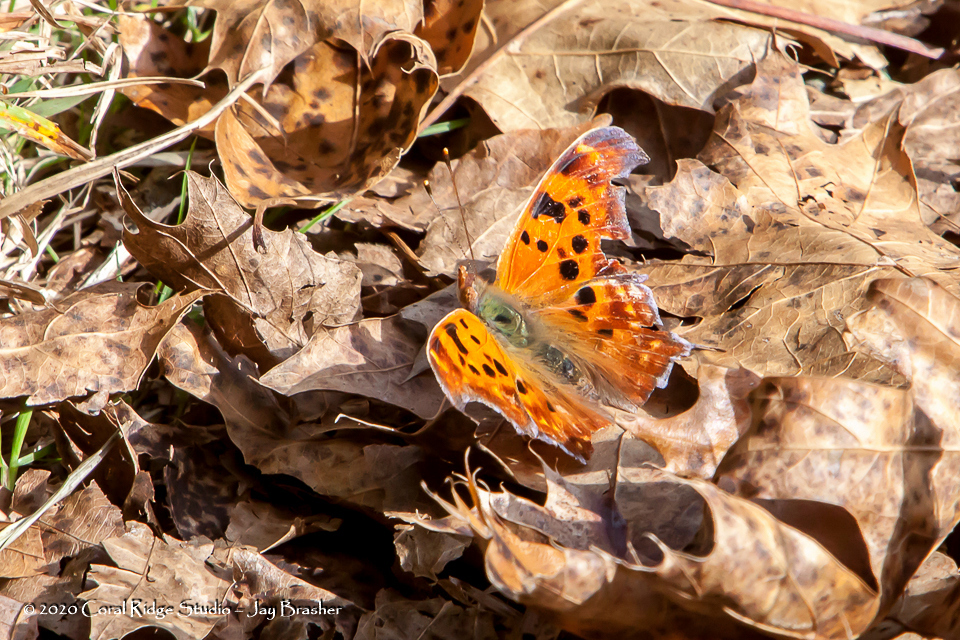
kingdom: Animalia
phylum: Arthropoda
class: Insecta
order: Lepidoptera
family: Nymphalidae
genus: Polygonia
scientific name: Polygonia interrogationis
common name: Question mark
